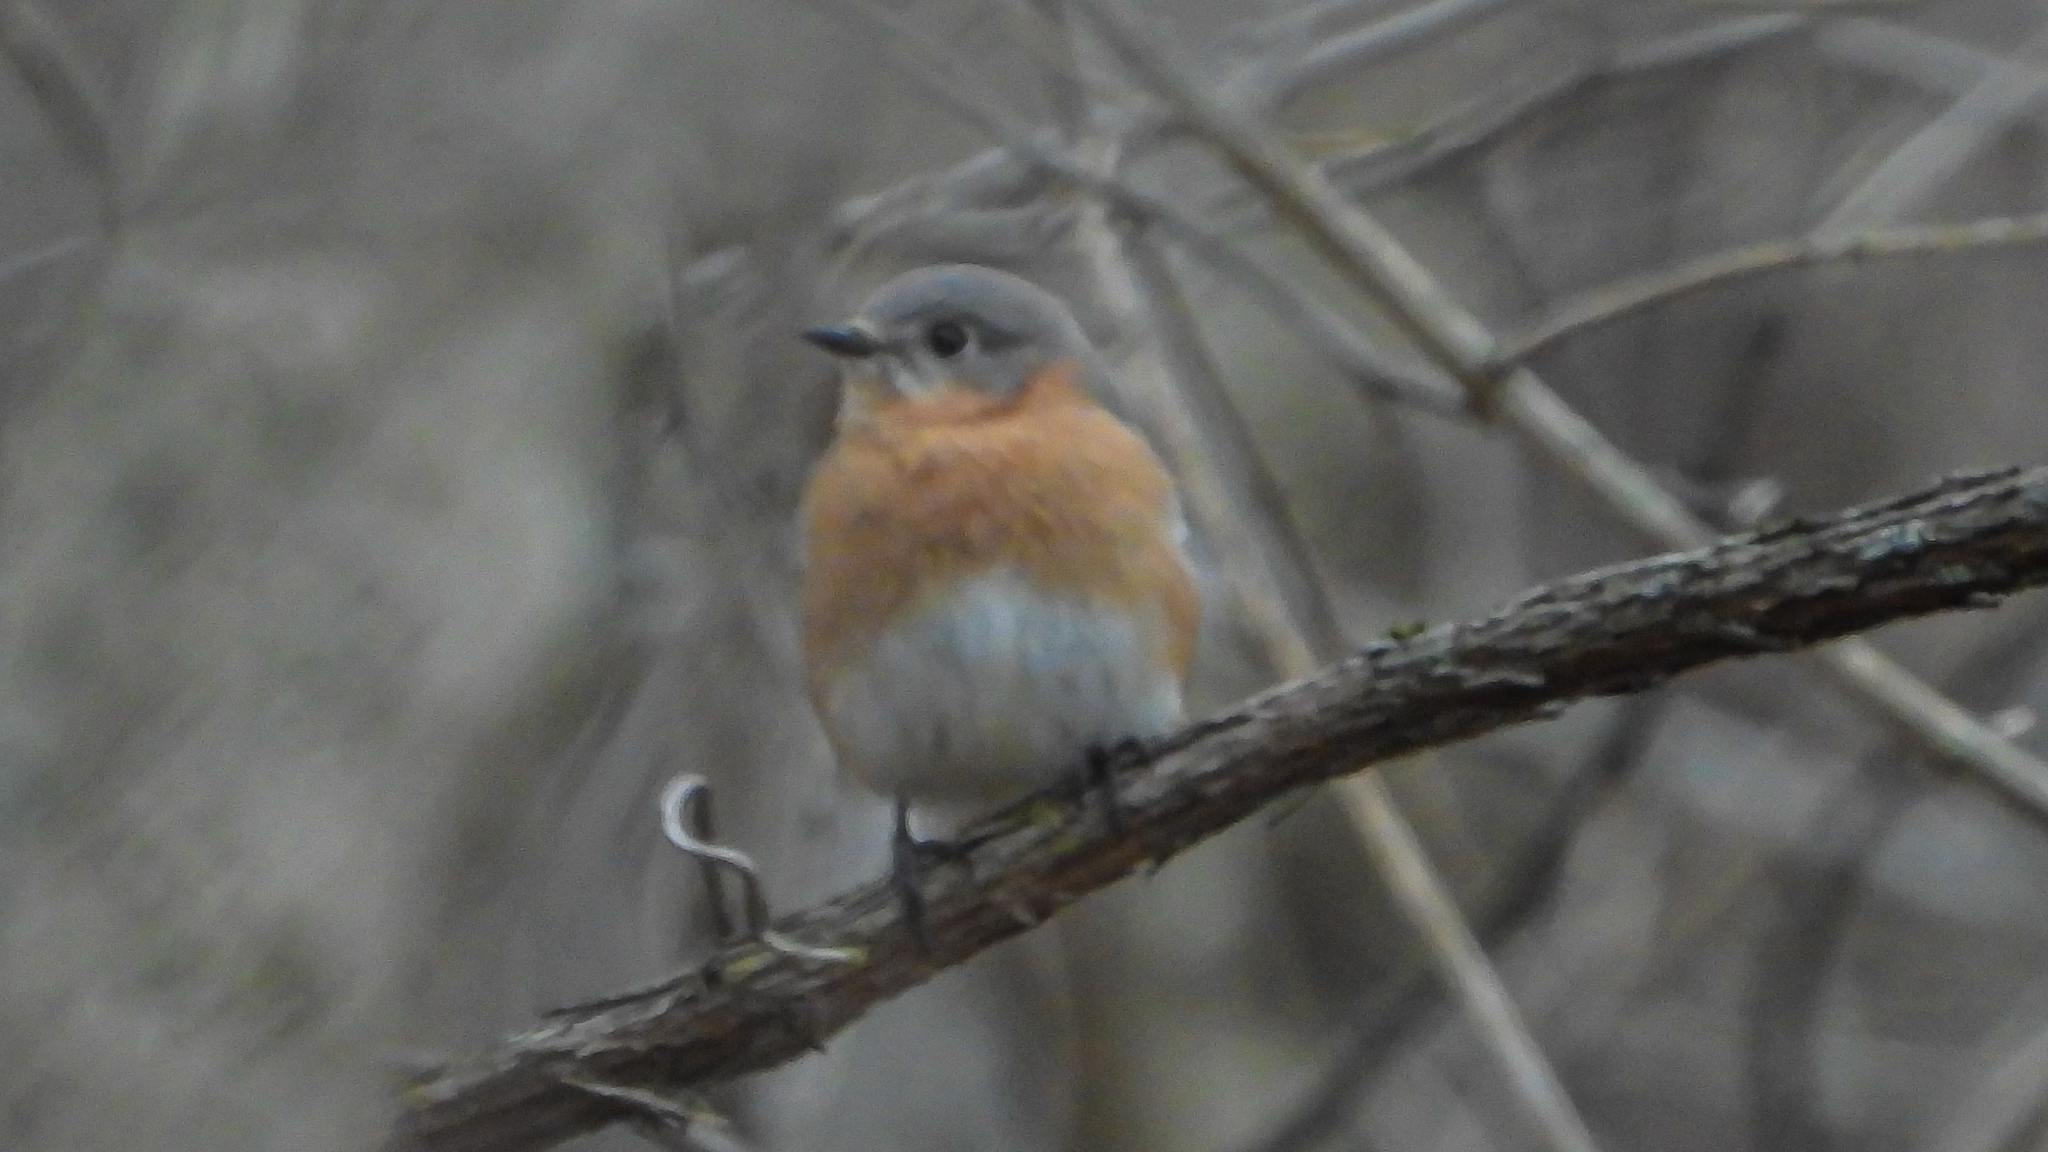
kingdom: Animalia
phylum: Chordata
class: Aves
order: Passeriformes
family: Turdidae
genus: Sialia
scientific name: Sialia sialis
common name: Eastern bluebird
